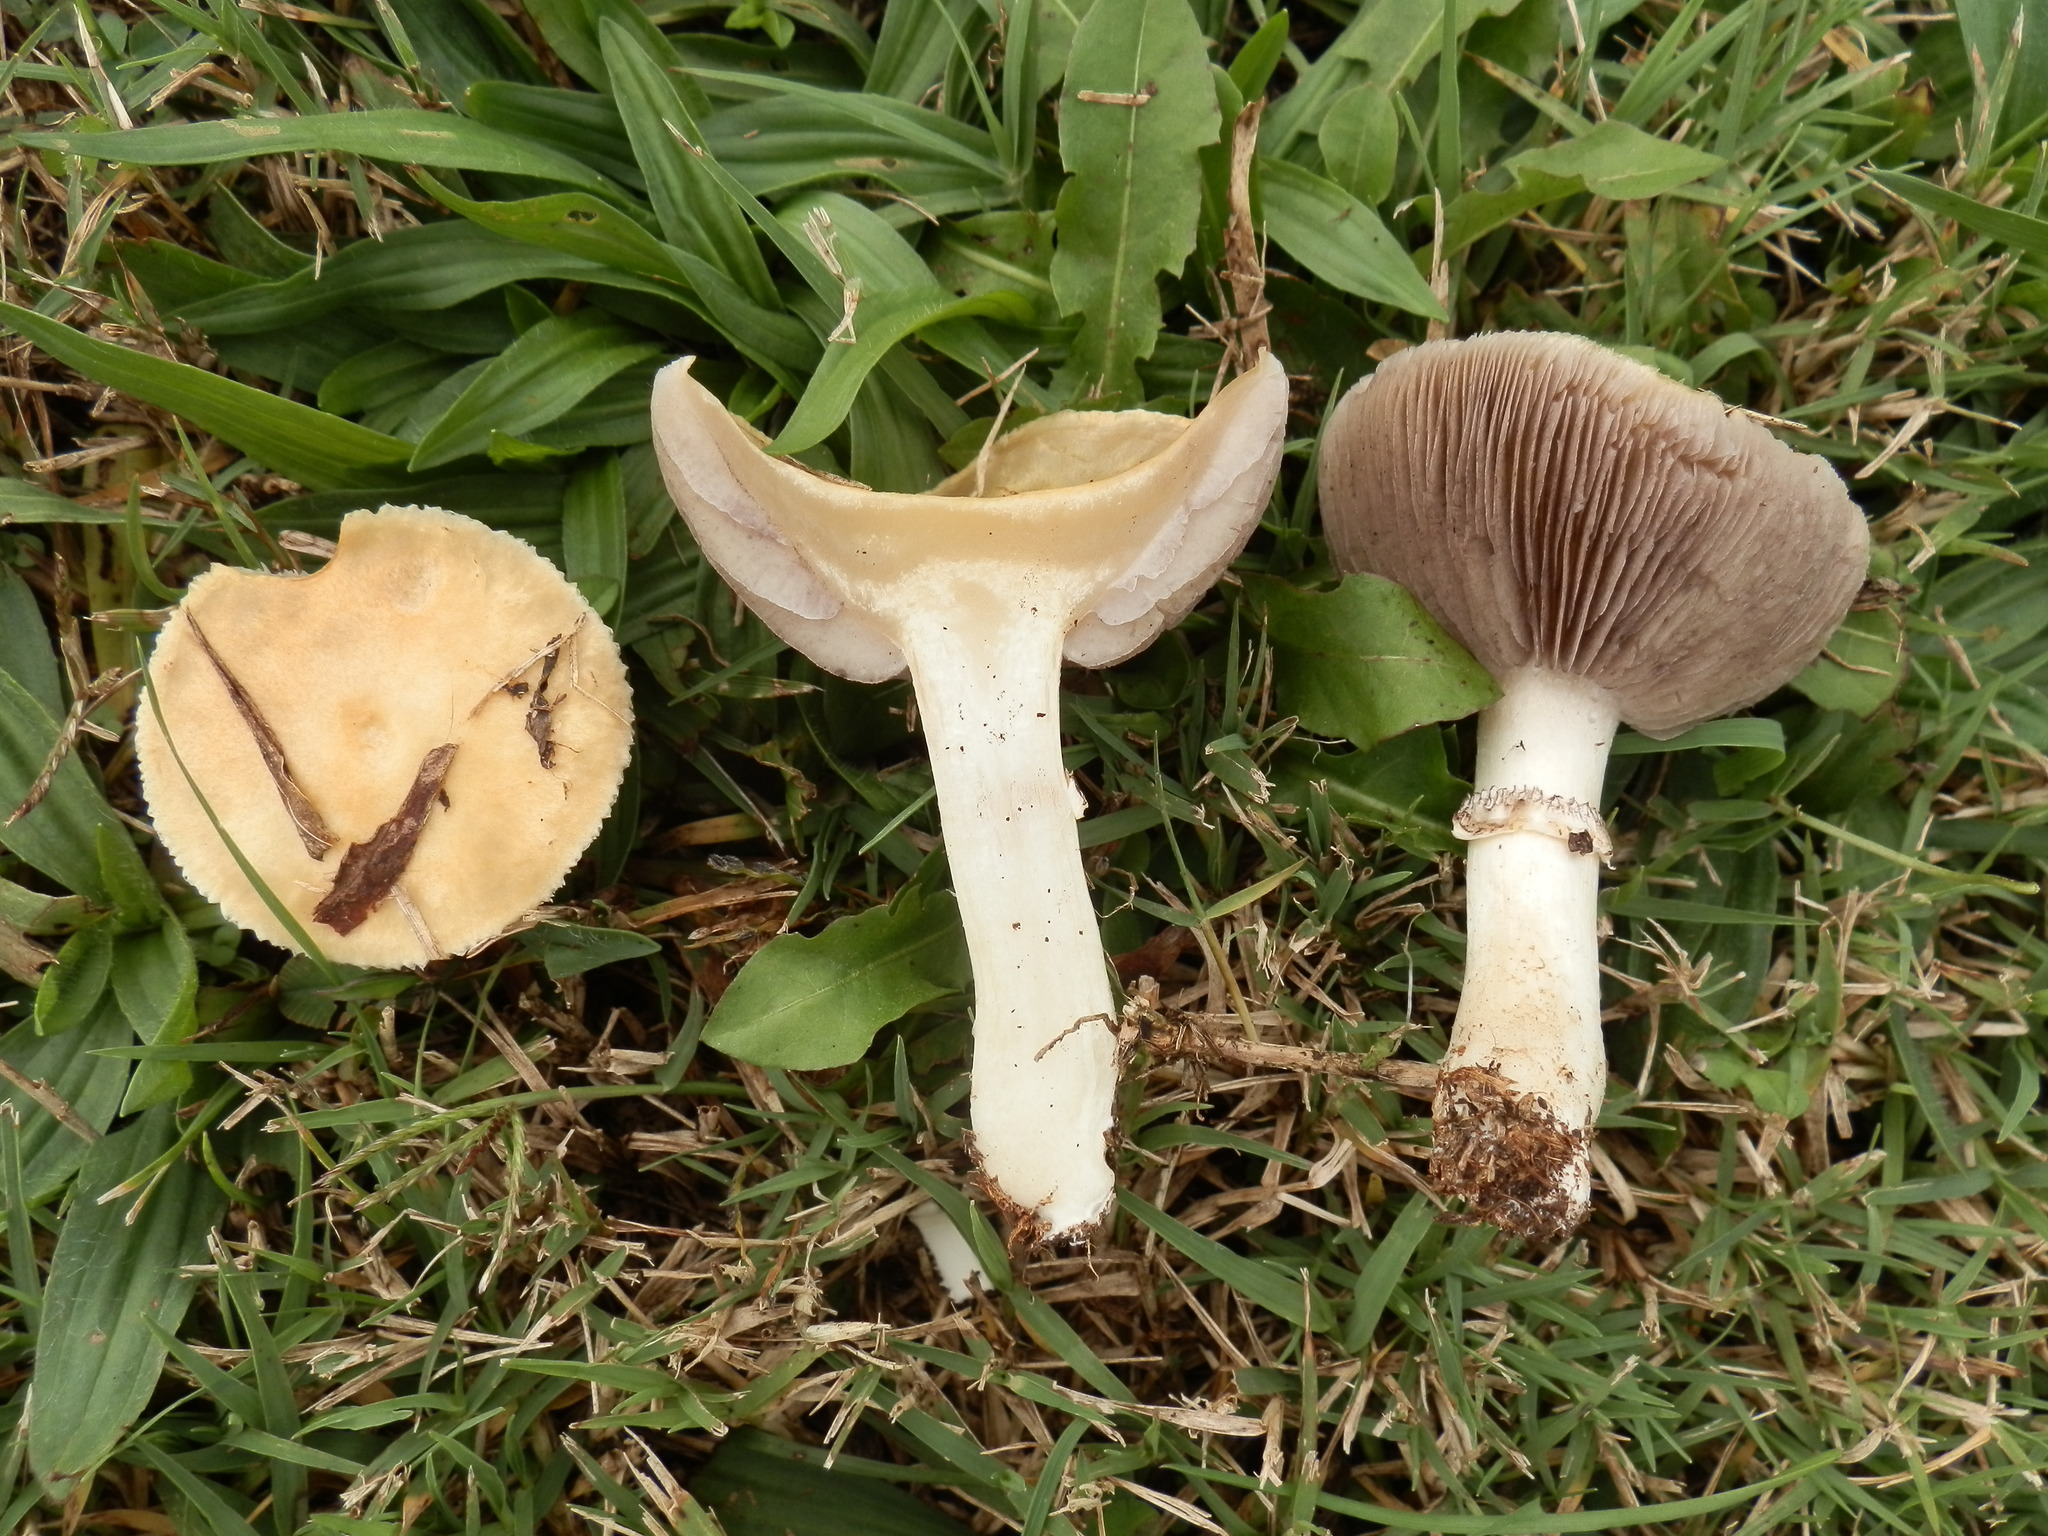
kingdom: Fungi
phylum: Basidiomycota
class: Agaricomycetes
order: Agaricales
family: Hymenogastraceae
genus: Psilocybe
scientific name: Psilocybe coronilla
